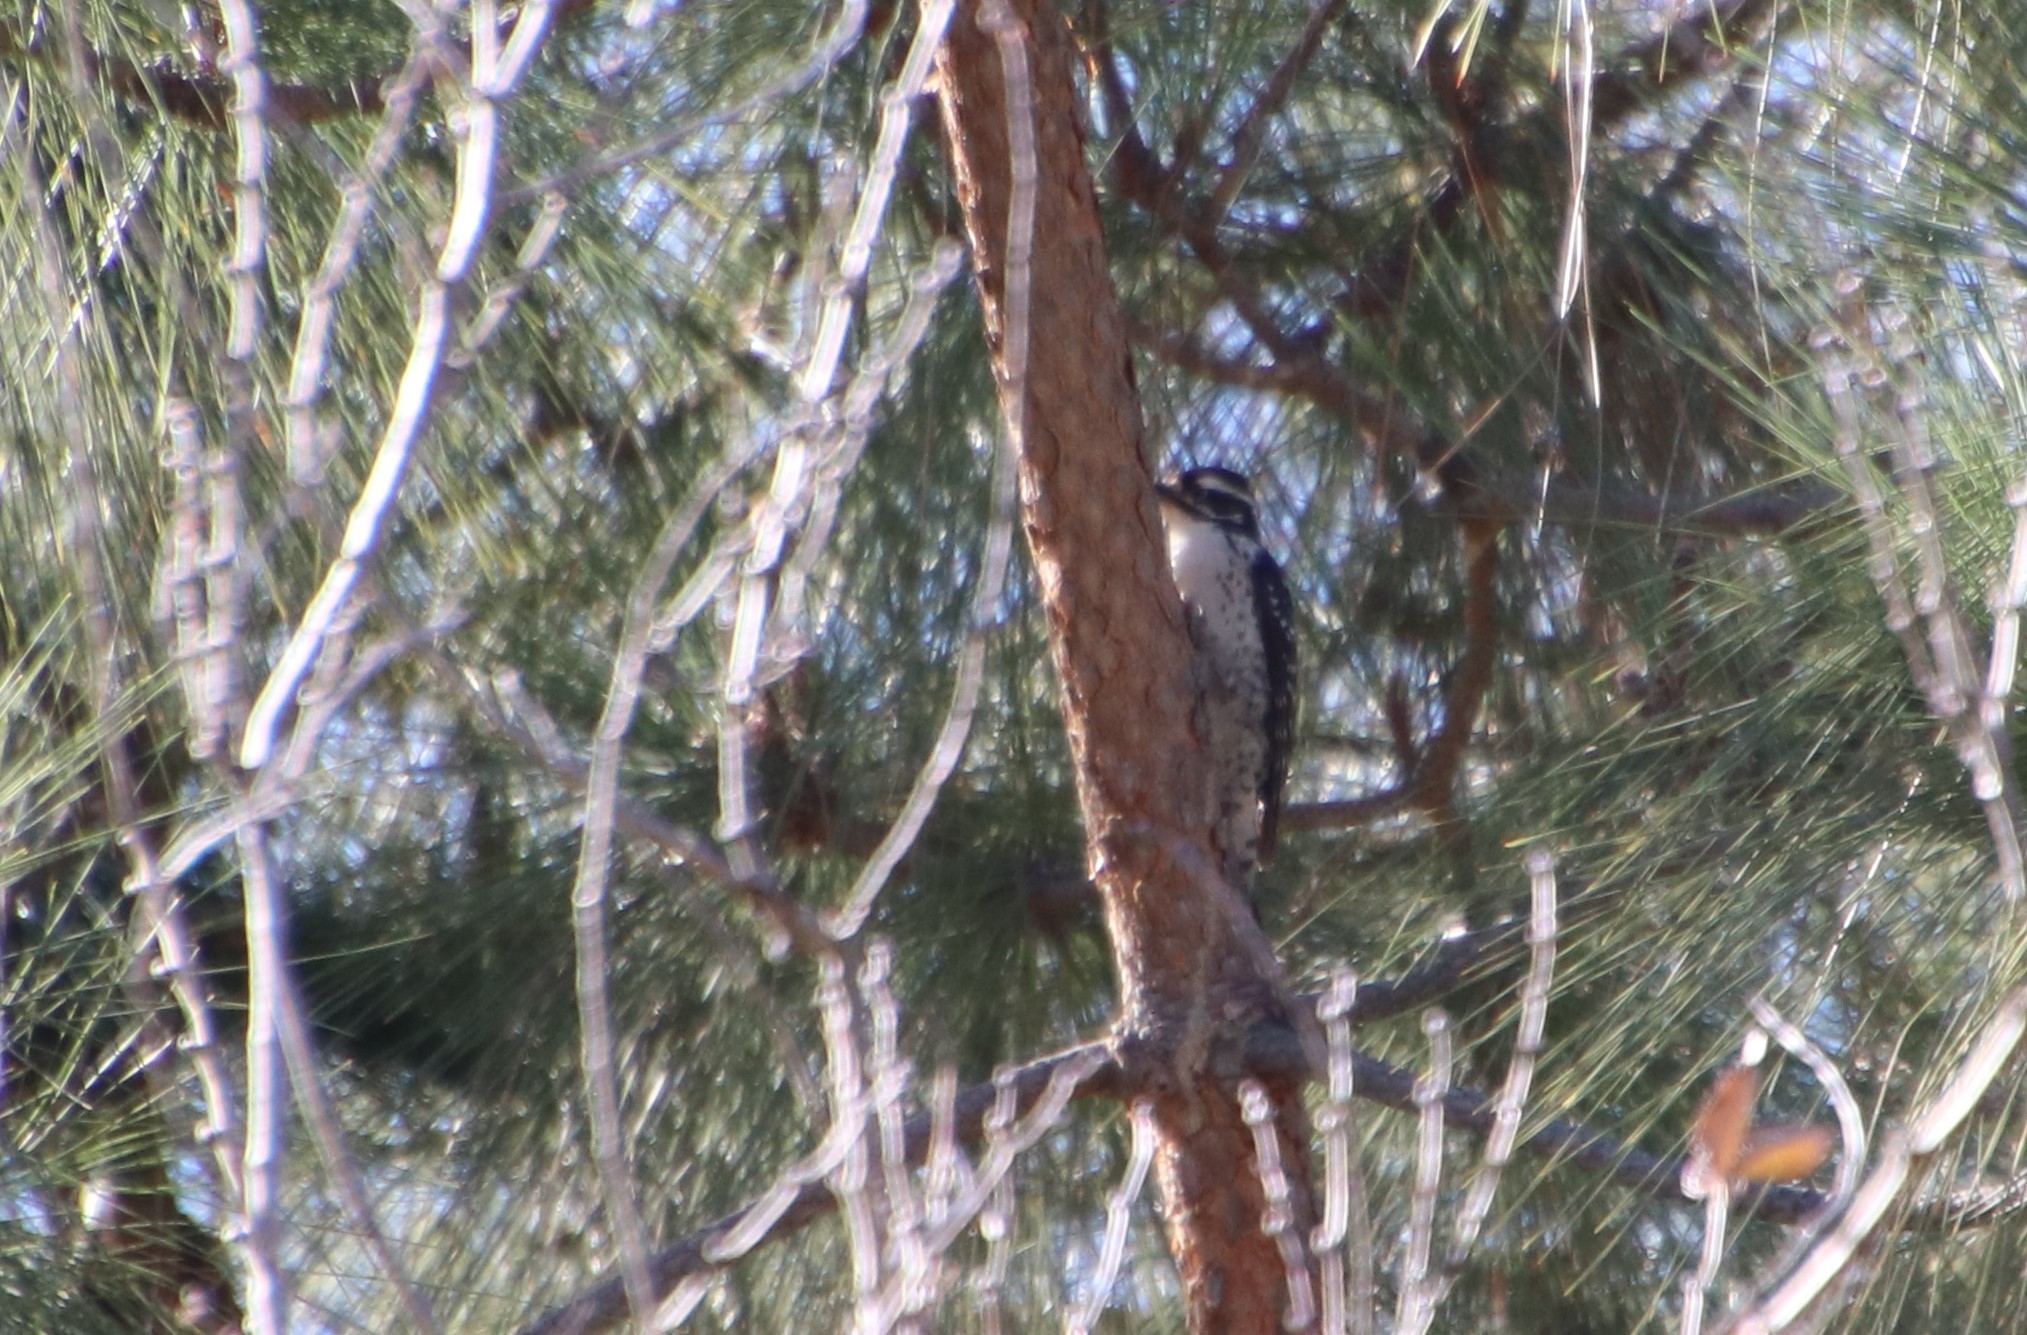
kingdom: Animalia
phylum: Chordata
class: Aves
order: Piciformes
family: Picidae
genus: Dryobates
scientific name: Dryobates nuttallii
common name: Nuttall's woodpecker
